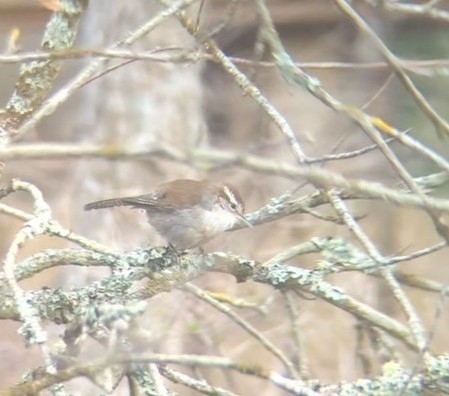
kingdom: Animalia
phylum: Chordata
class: Aves
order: Passeriformes
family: Troglodytidae
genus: Thryomanes
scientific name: Thryomanes bewickii
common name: Bewick's wren
